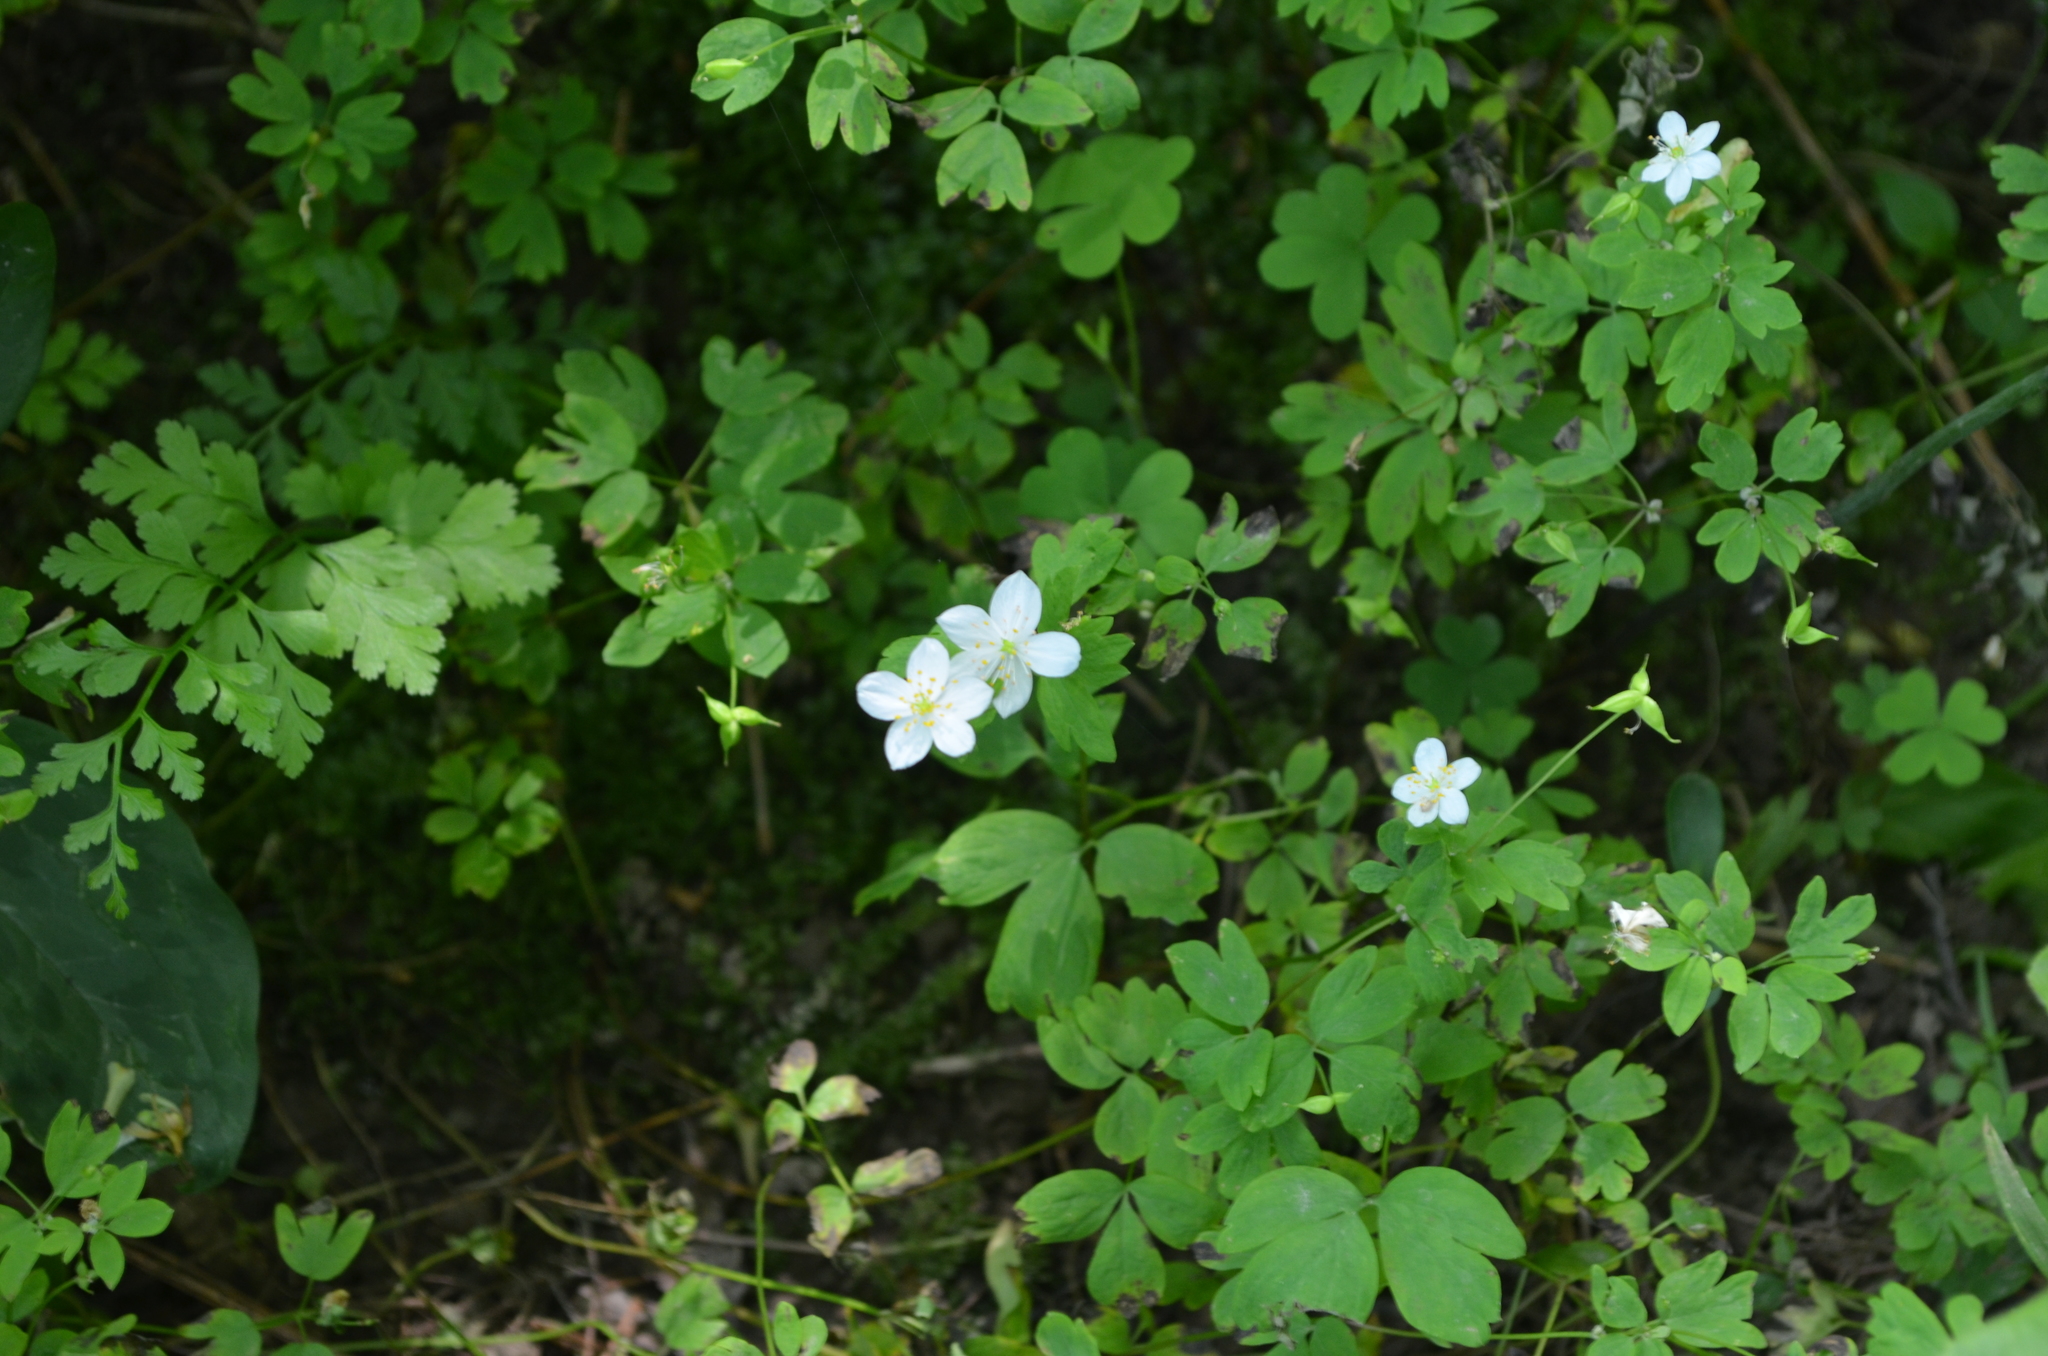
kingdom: Plantae
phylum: Tracheophyta
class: Magnoliopsida
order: Ranunculales
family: Ranunculaceae
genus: Enemion
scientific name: Enemion biternatum
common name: Eastern false rue-anemone
